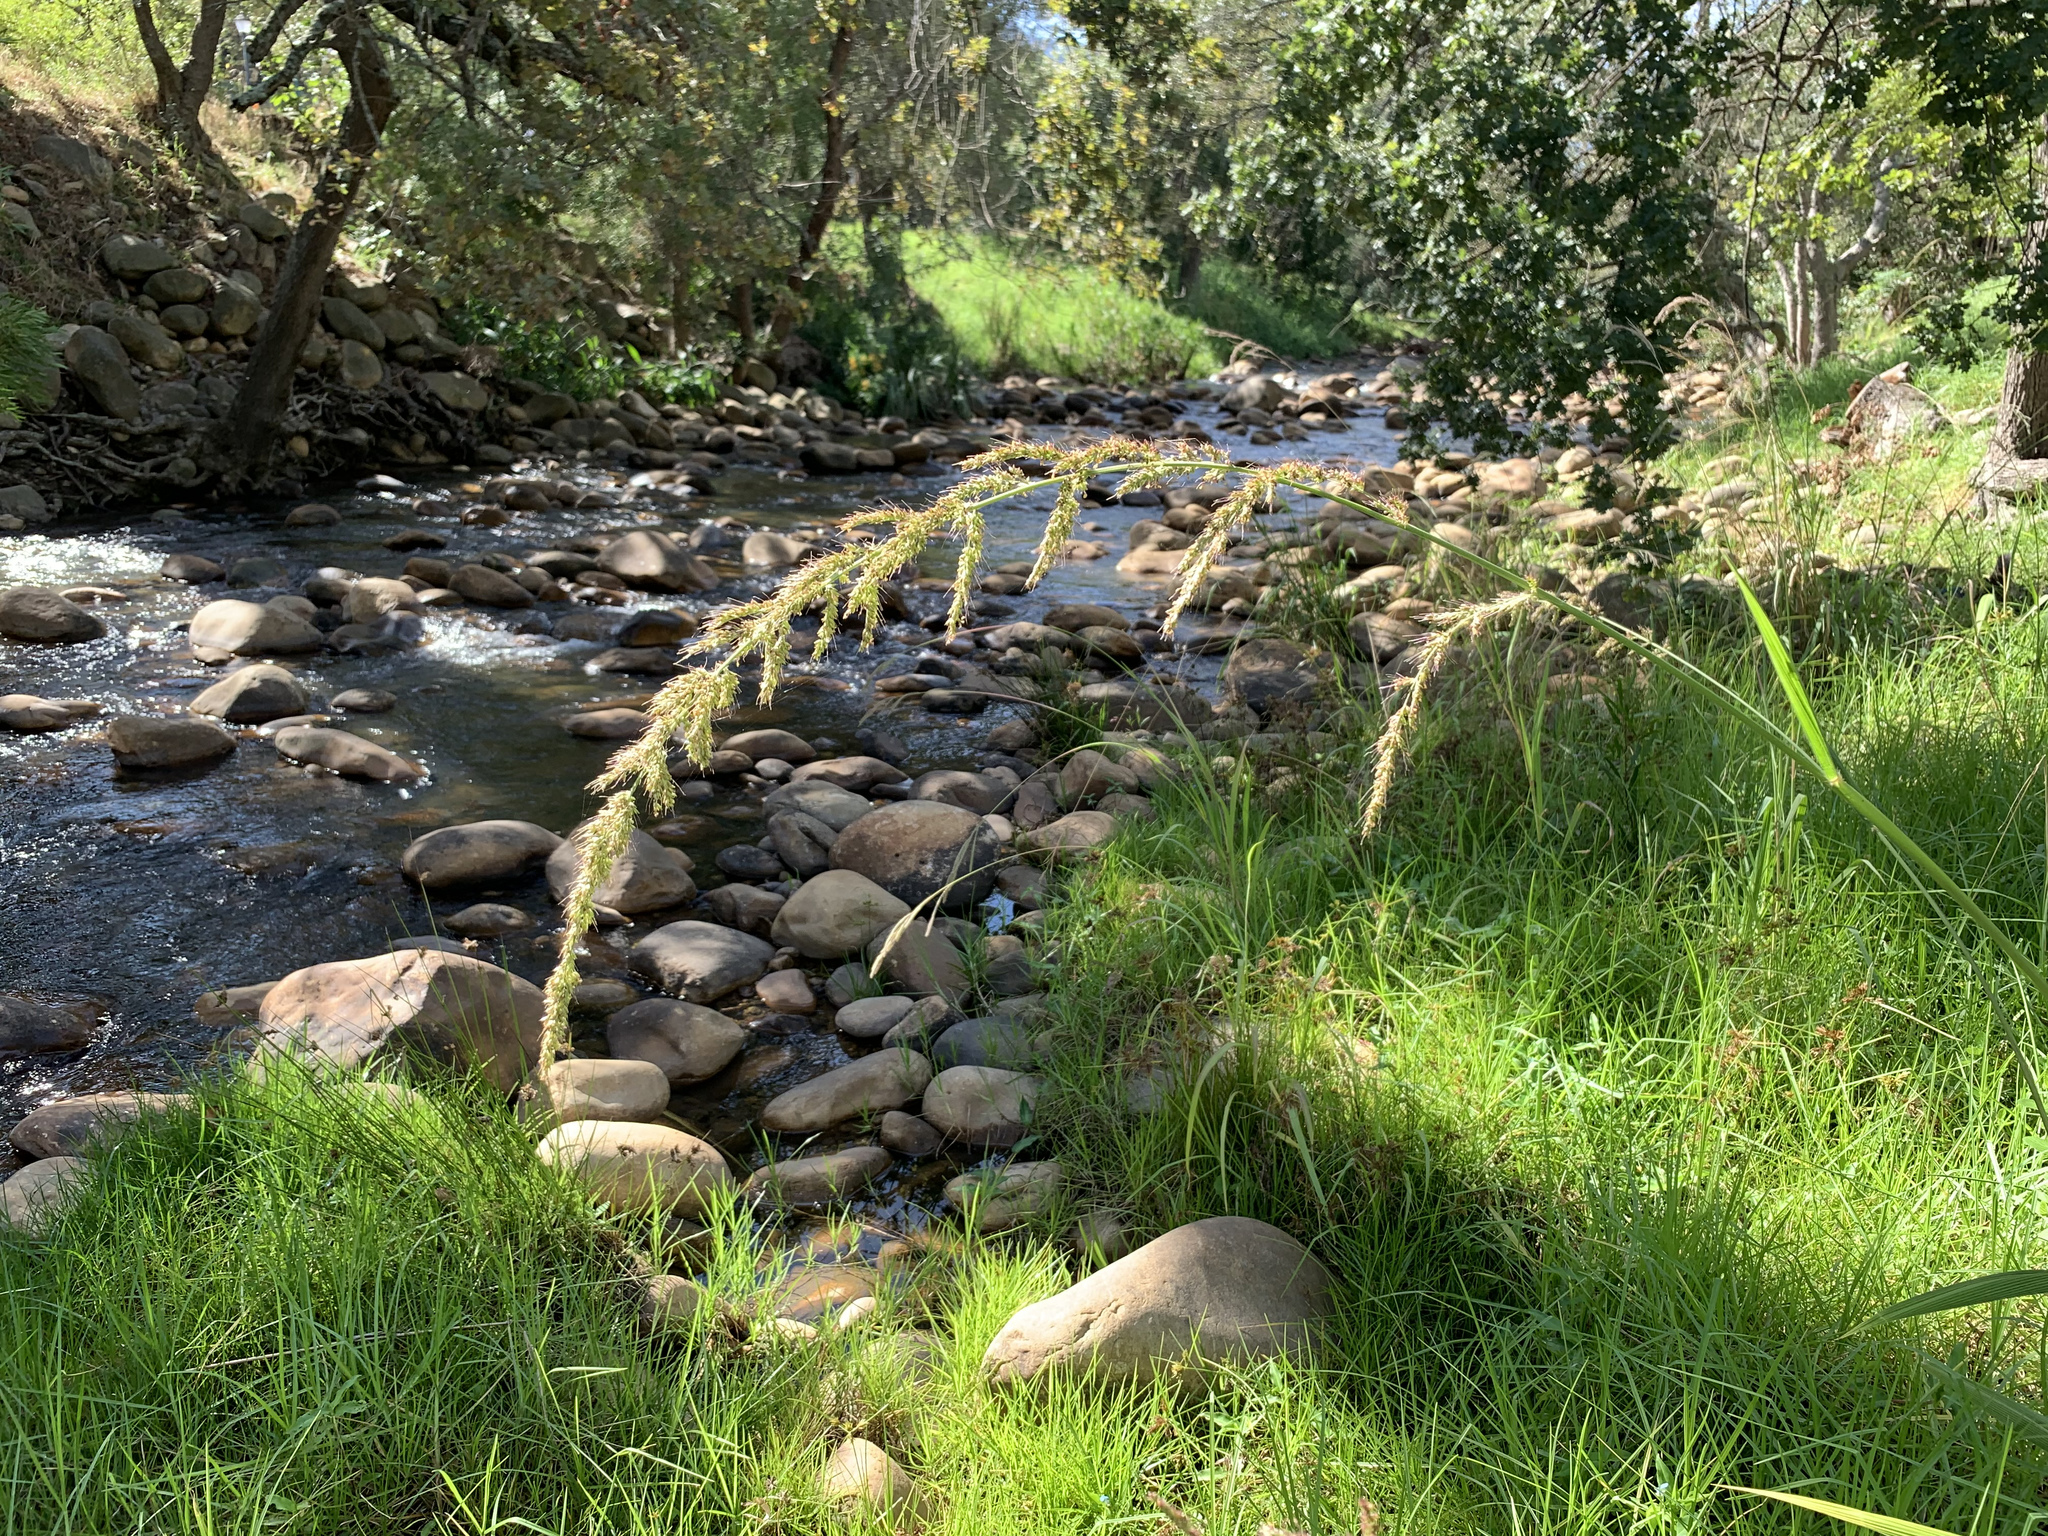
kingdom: Plantae
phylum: Tracheophyta
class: Liliopsida
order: Poales
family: Poaceae
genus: Setaria
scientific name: Setaria megaphylla
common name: Bigleaf bristlegrass
